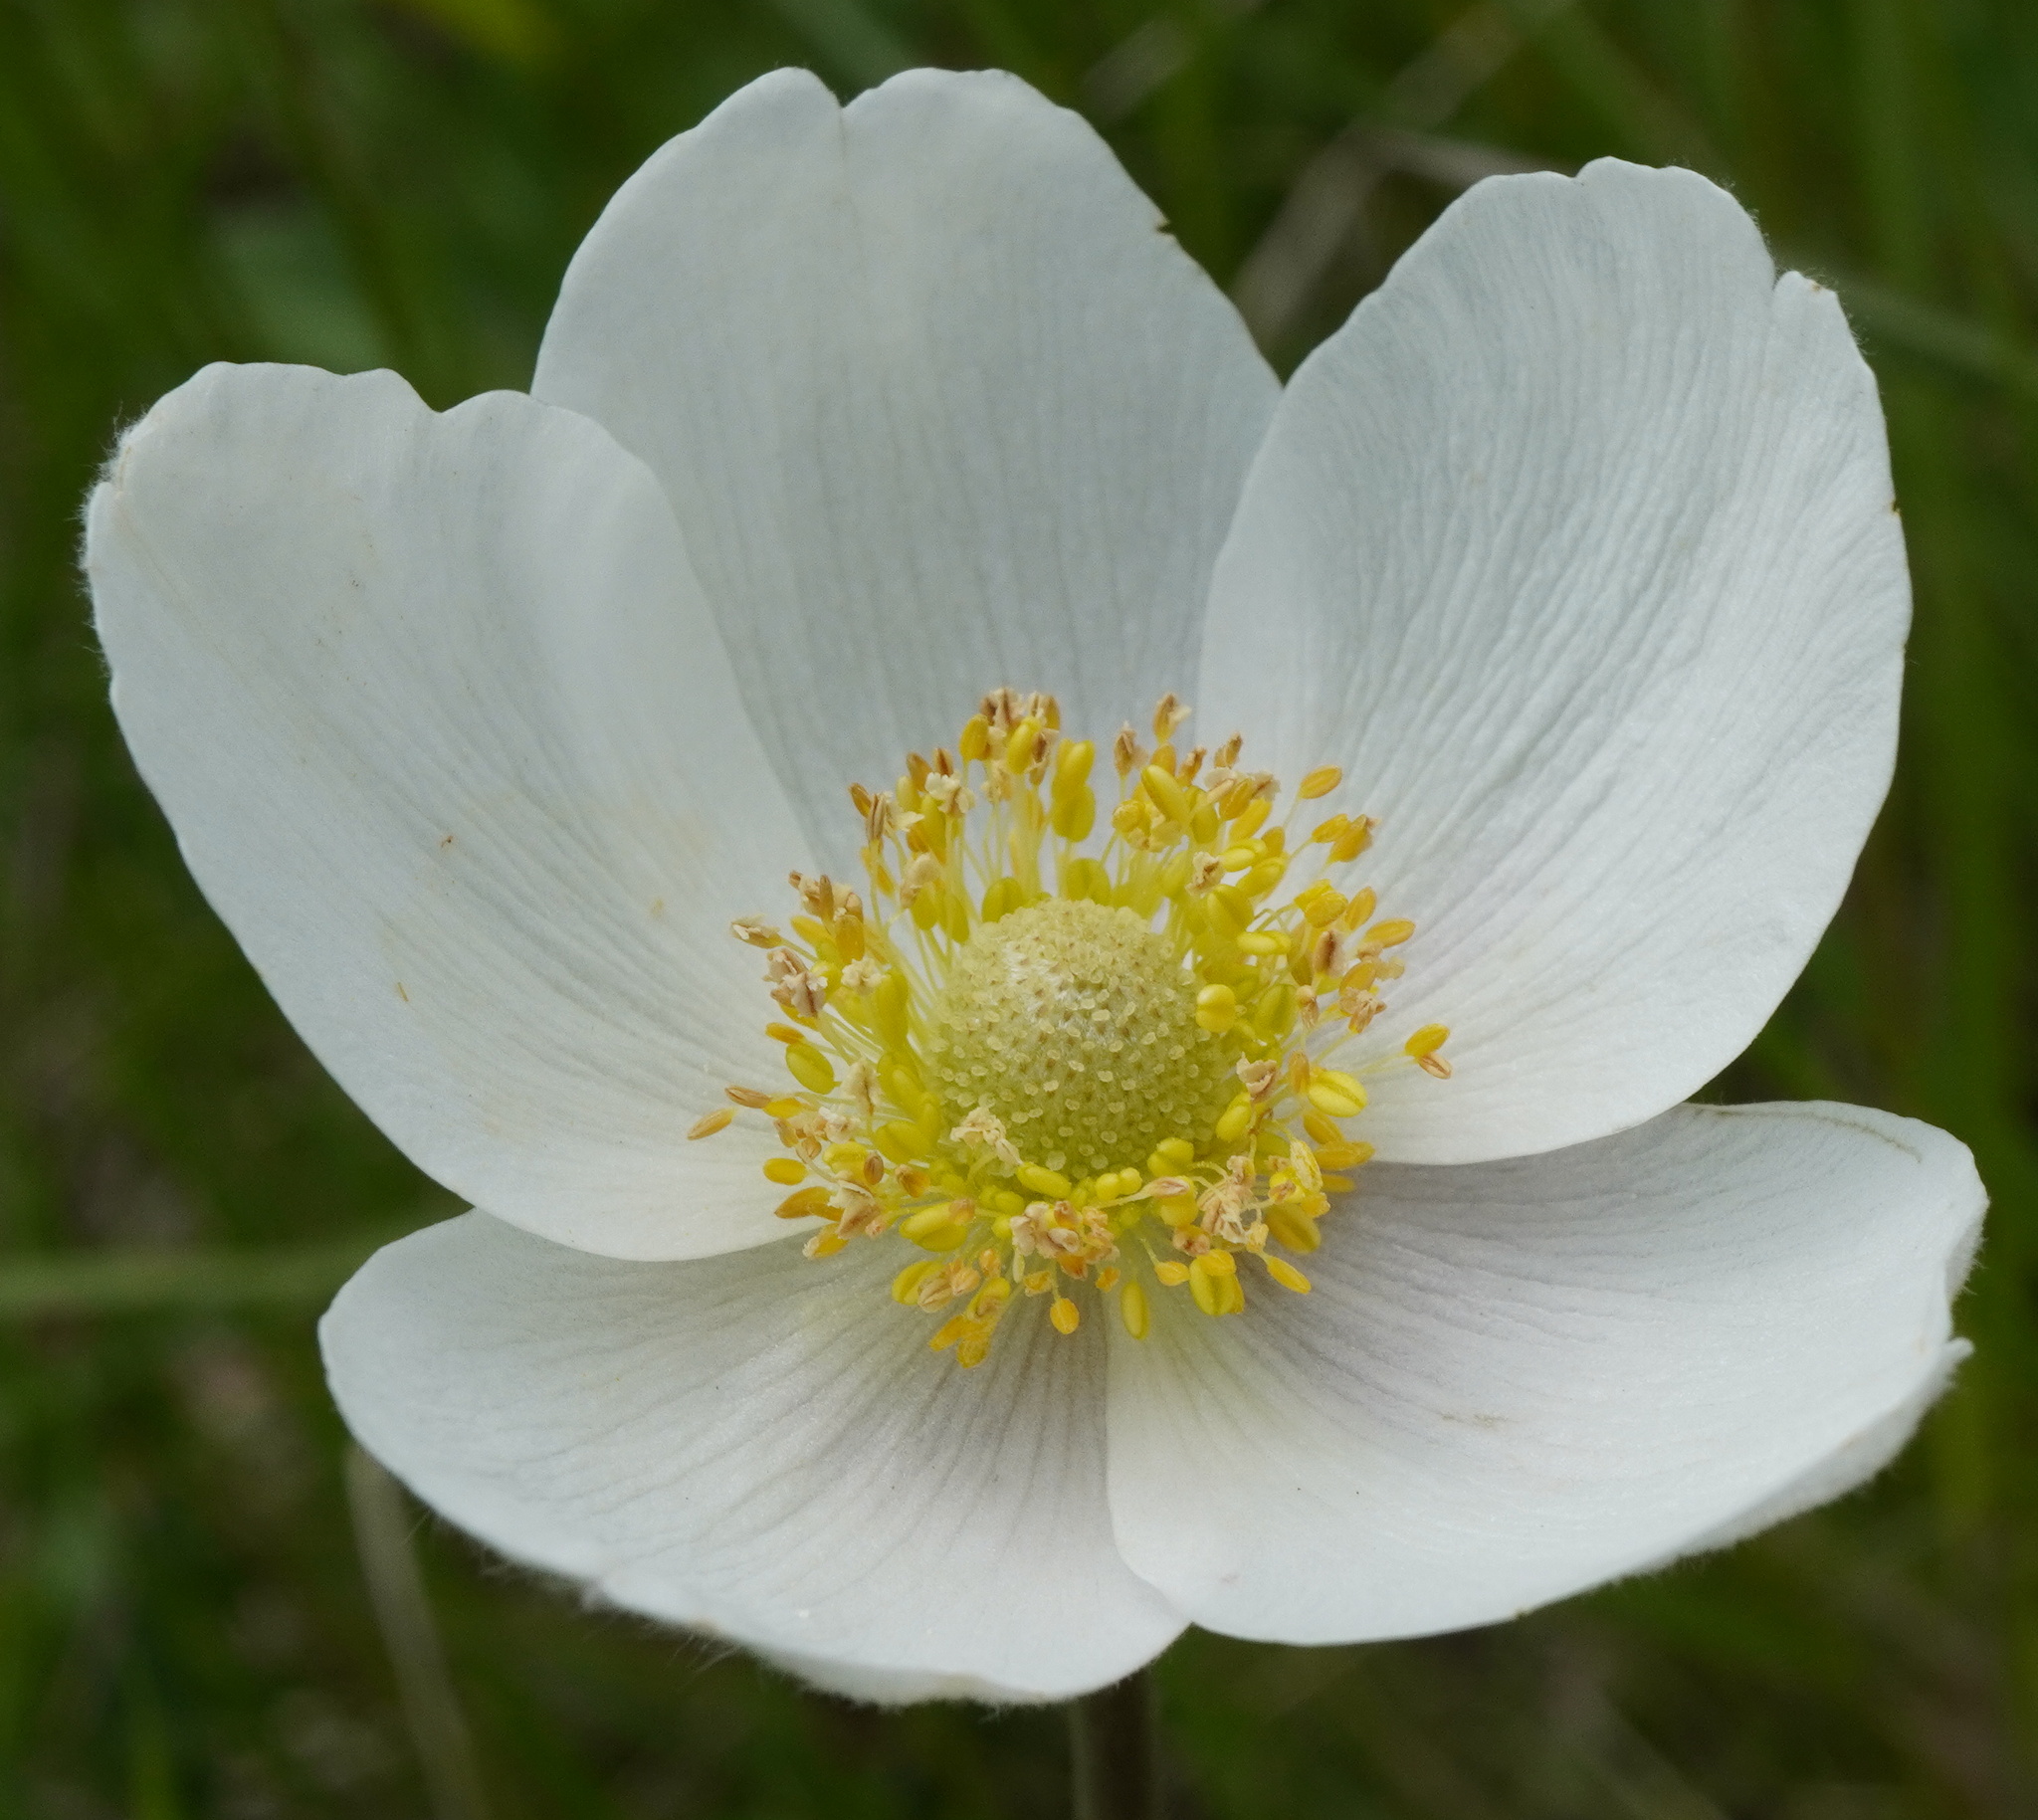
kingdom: Plantae
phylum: Tracheophyta
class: Magnoliopsida
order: Ranunculales
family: Ranunculaceae
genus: Anemone
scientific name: Anemone sylvestris
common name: Snowdrop anemone
